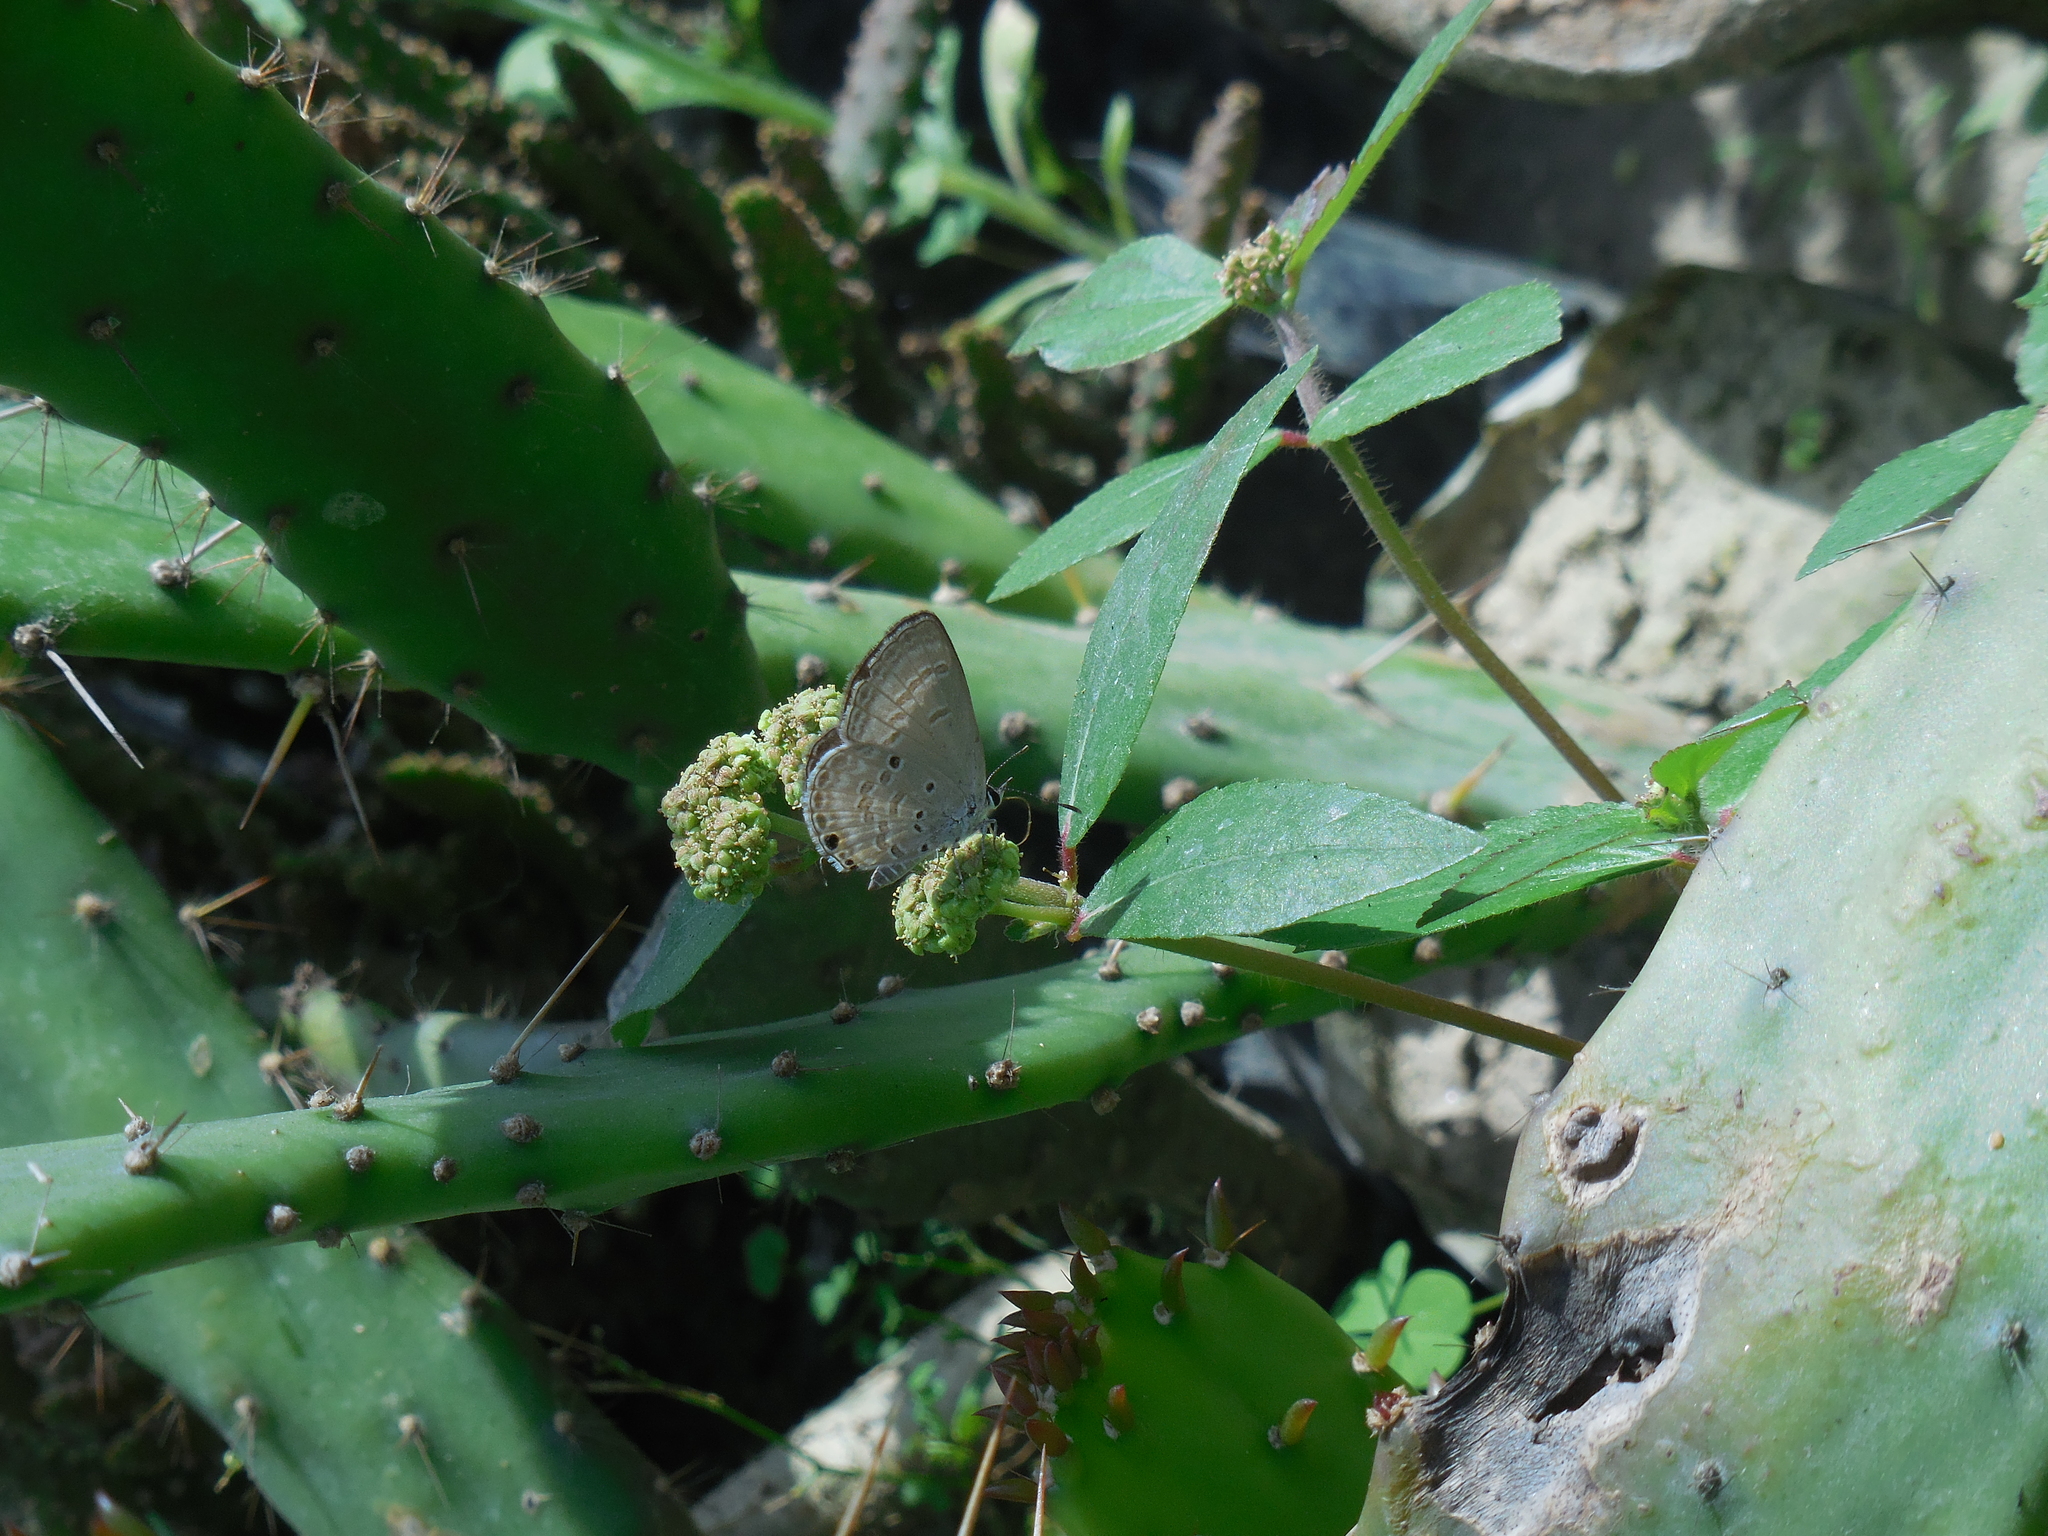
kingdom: Animalia
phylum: Arthropoda
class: Insecta
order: Lepidoptera
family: Lycaenidae
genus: Luthrodes
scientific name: Luthrodes pandava
